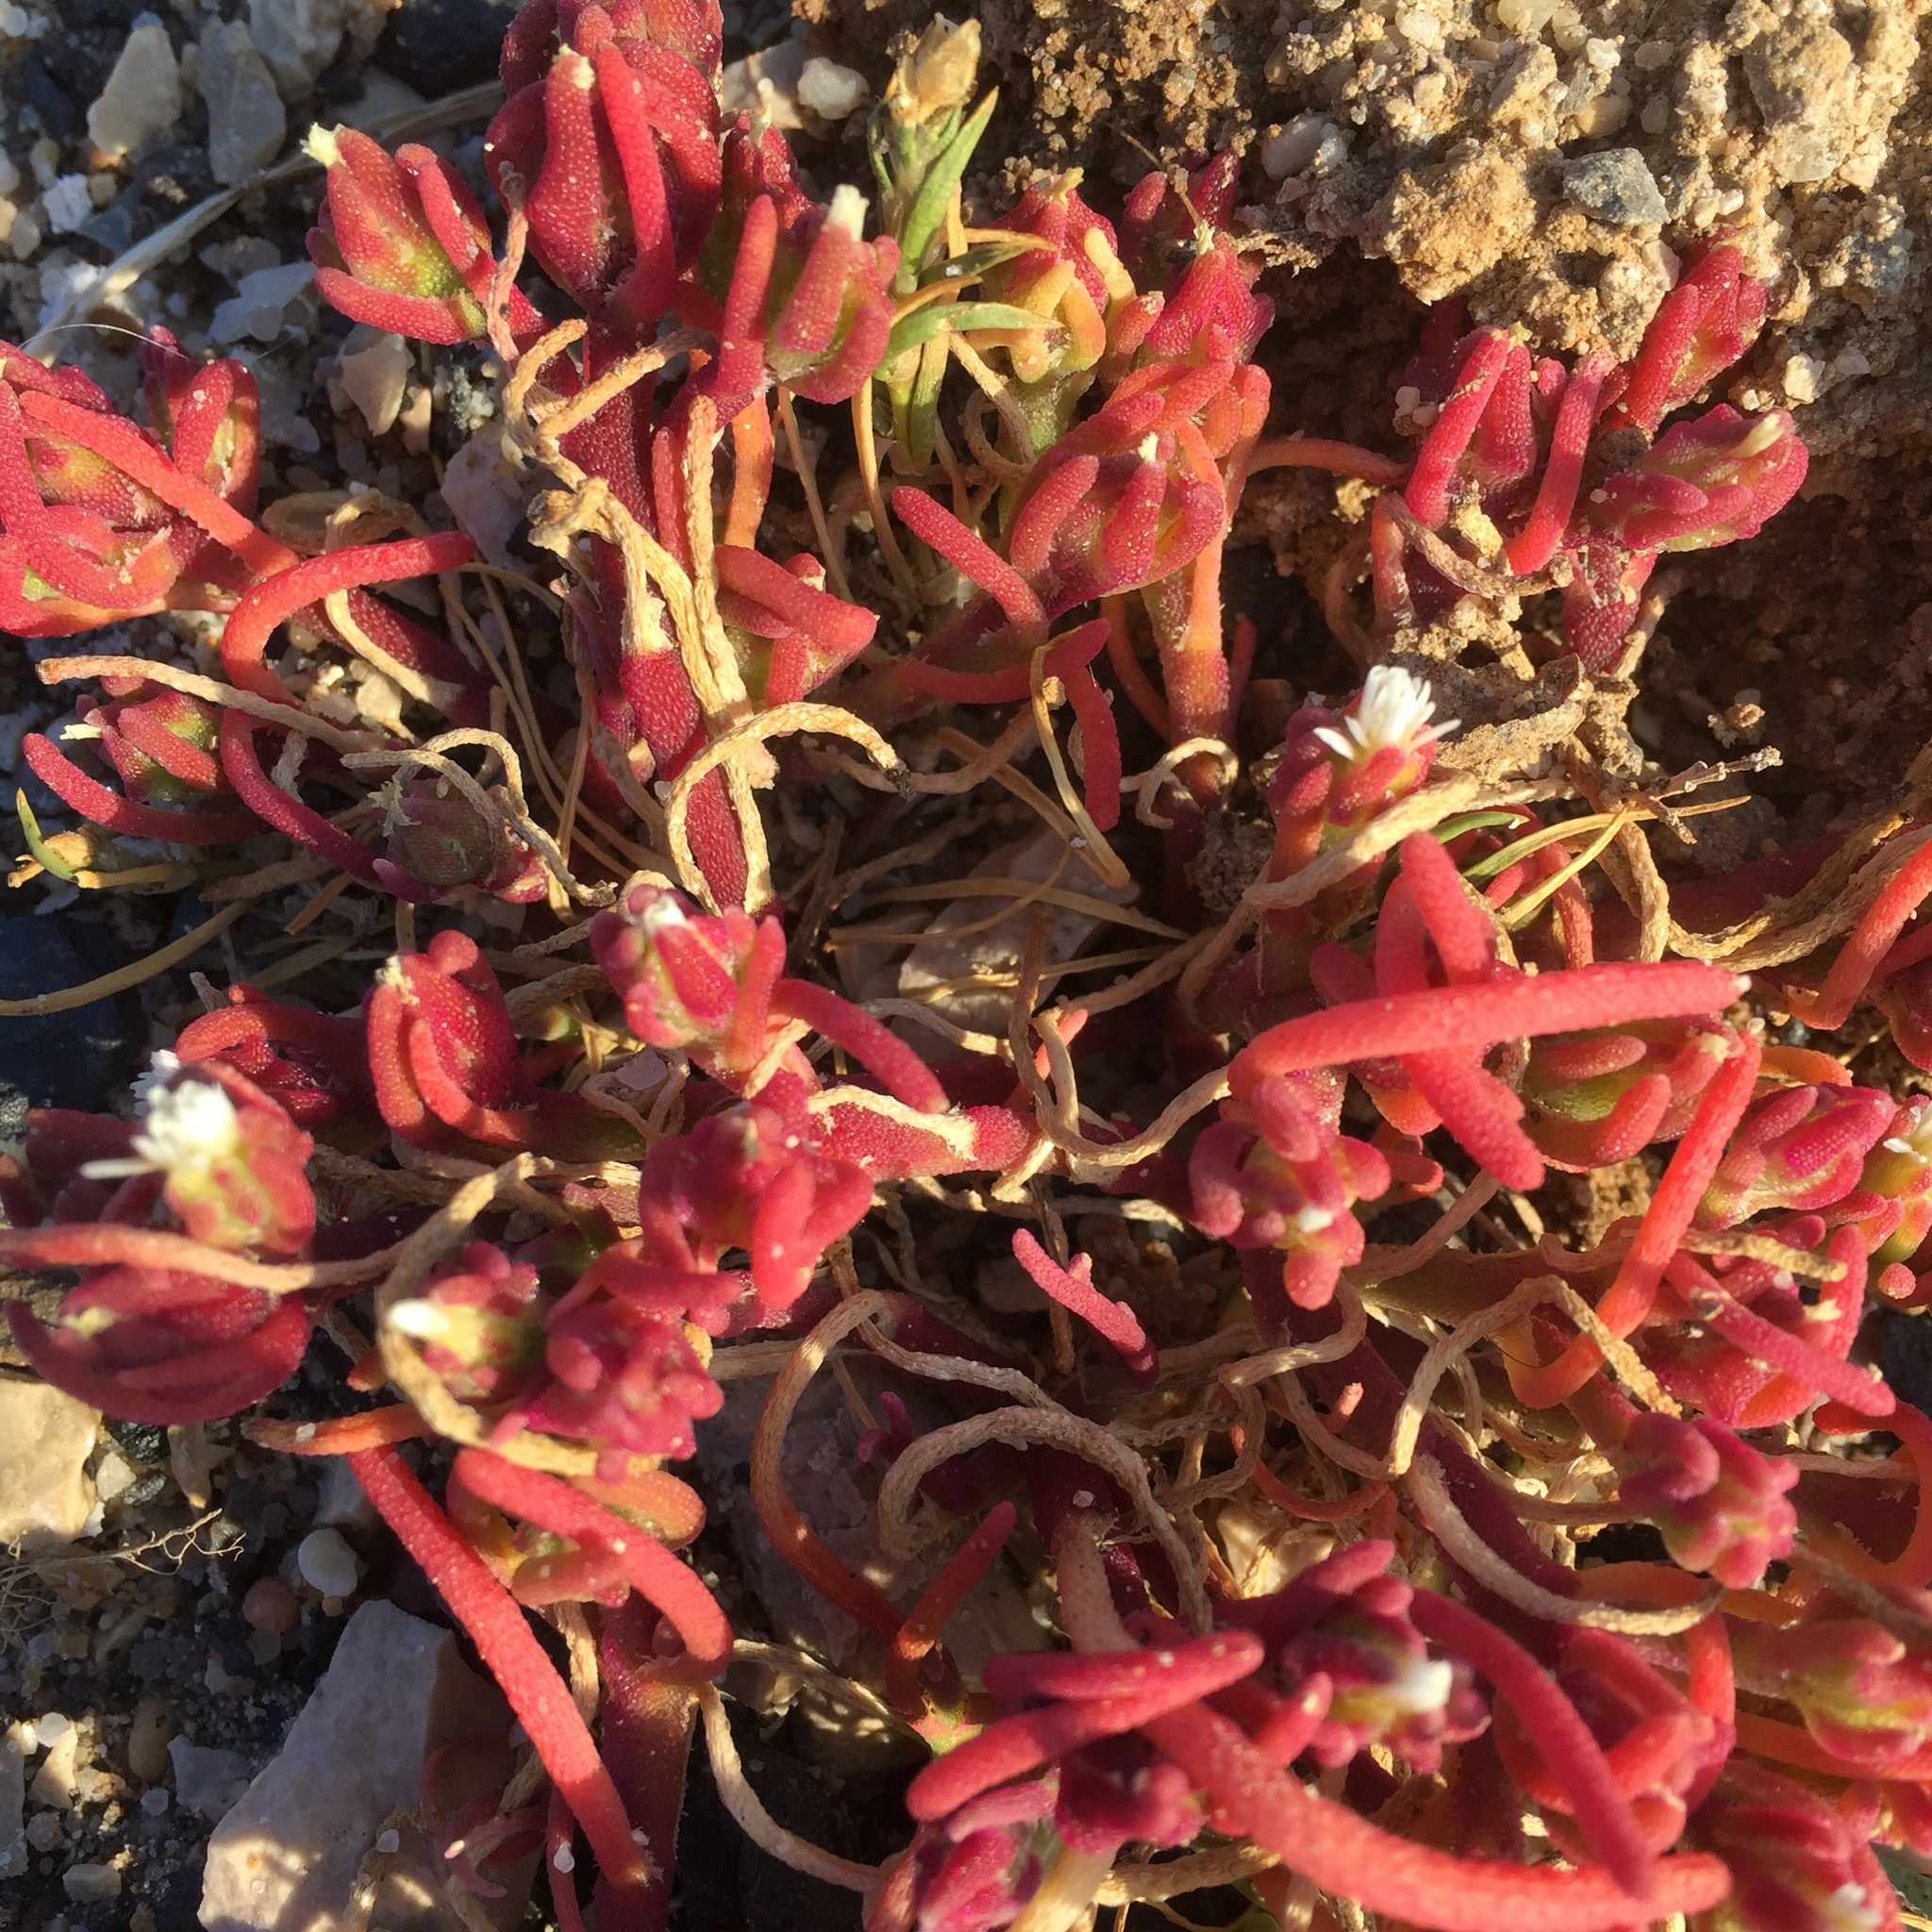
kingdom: Plantae
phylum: Tracheophyta
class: Magnoliopsida
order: Caryophyllales
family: Aizoaceae
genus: Mesembryanthemum
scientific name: Mesembryanthemum nodiflorum
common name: Slenderleaf iceplant
